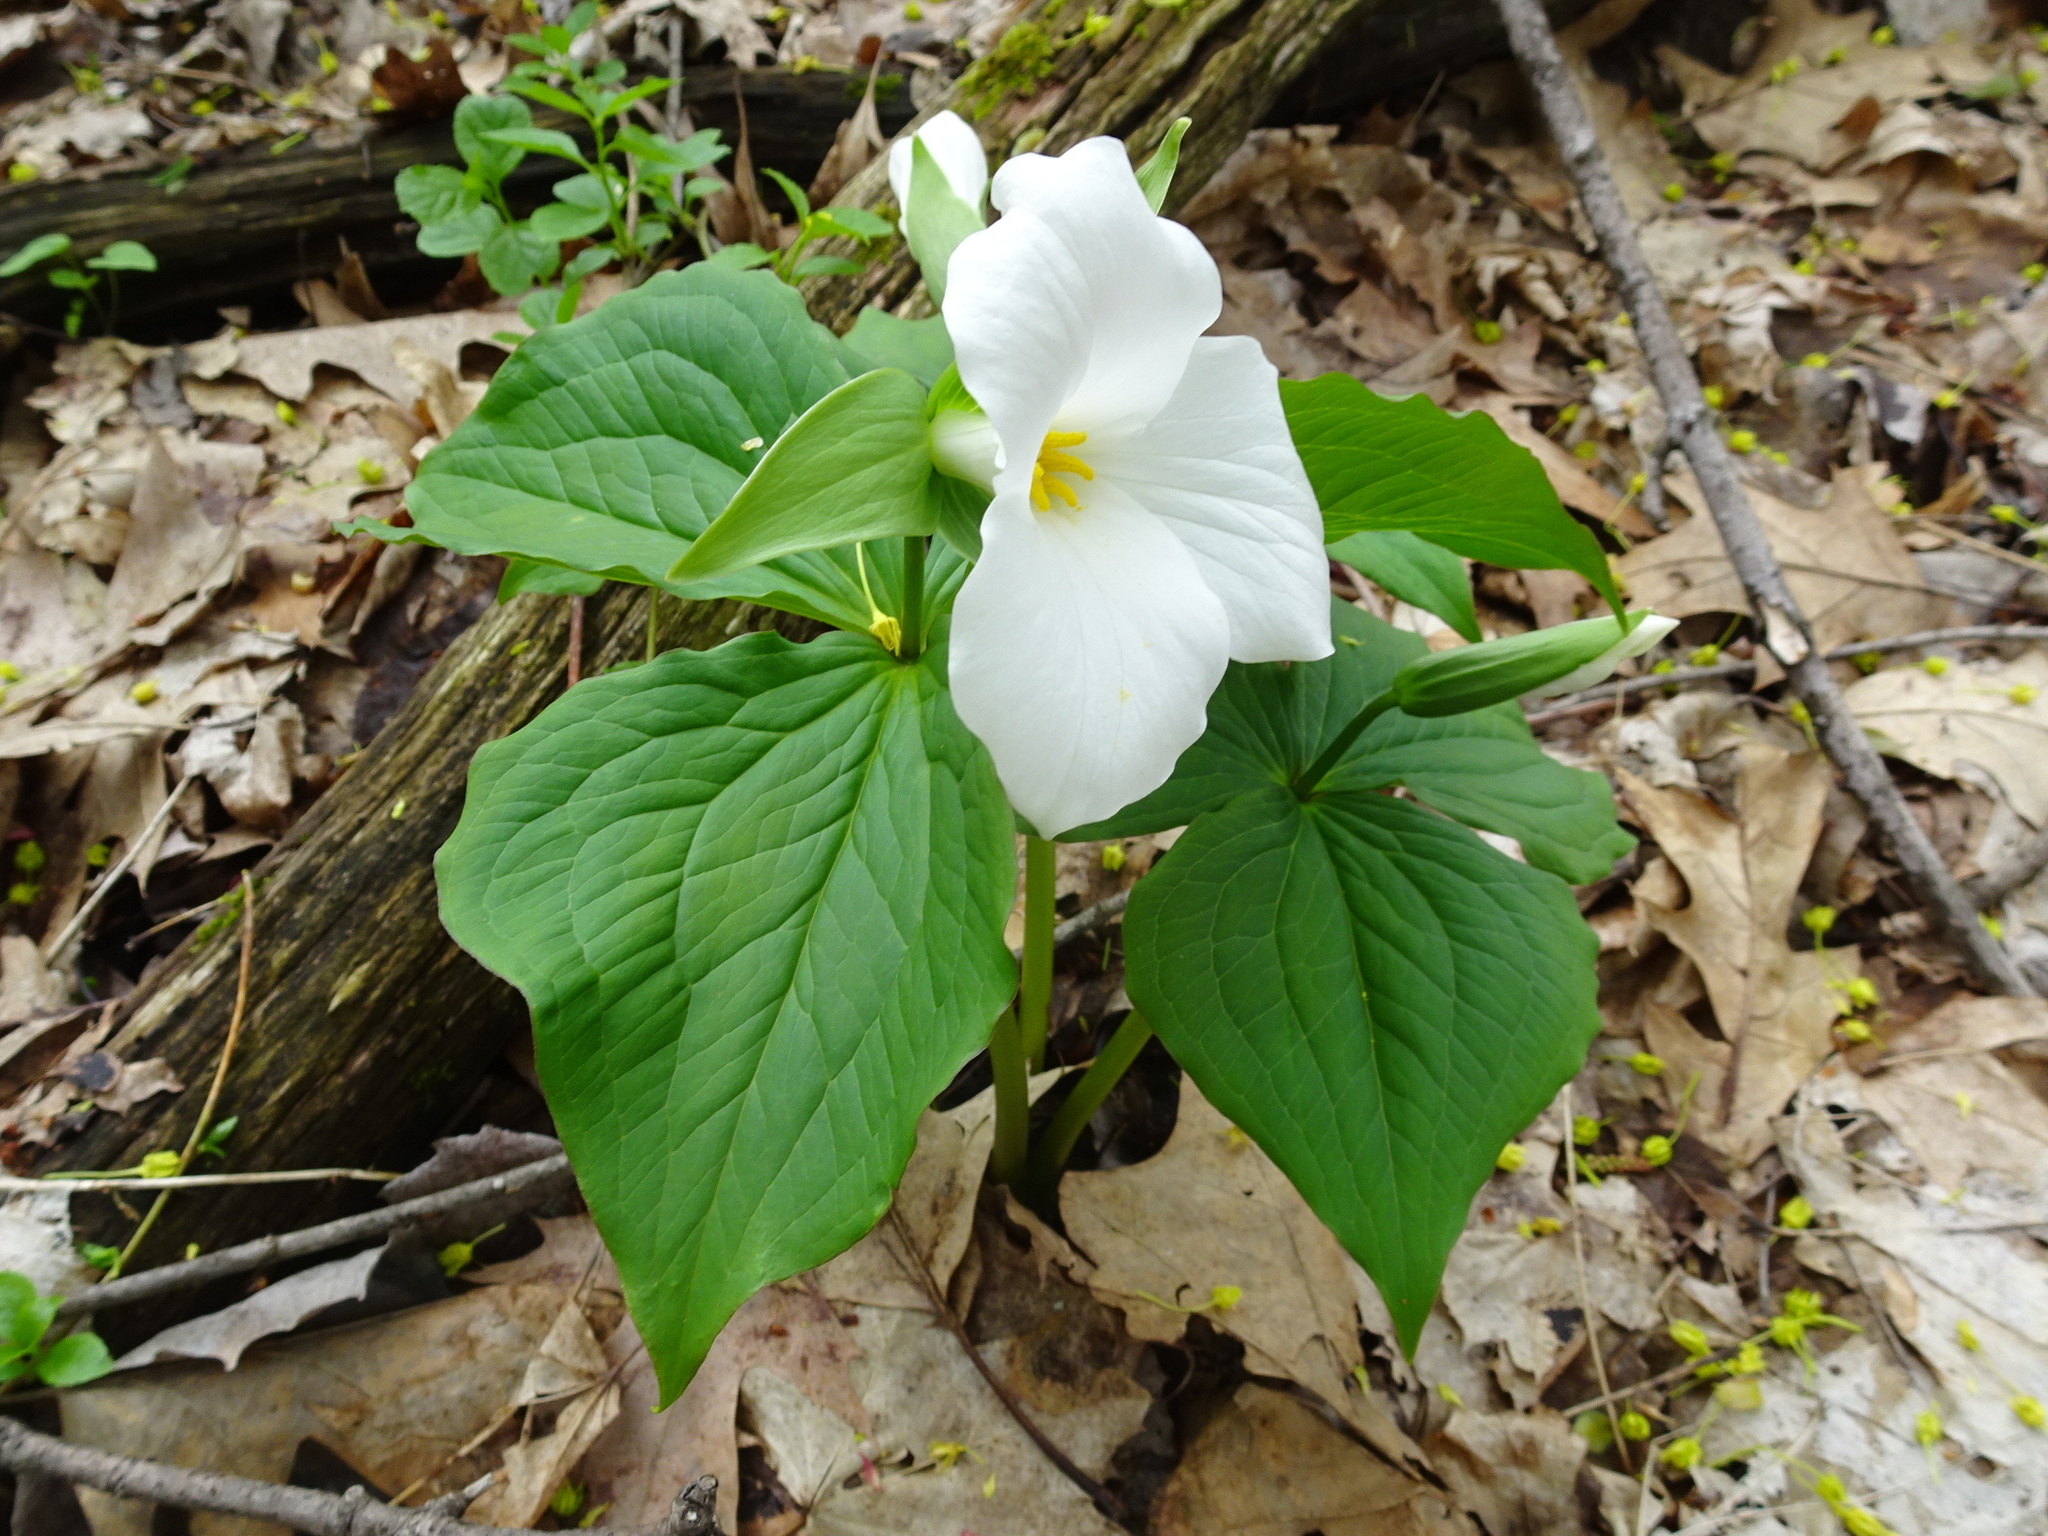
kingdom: Plantae
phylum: Tracheophyta
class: Liliopsida
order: Liliales
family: Melanthiaceae
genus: Trillium
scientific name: Trillium grandiflorum
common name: Great white trillium
